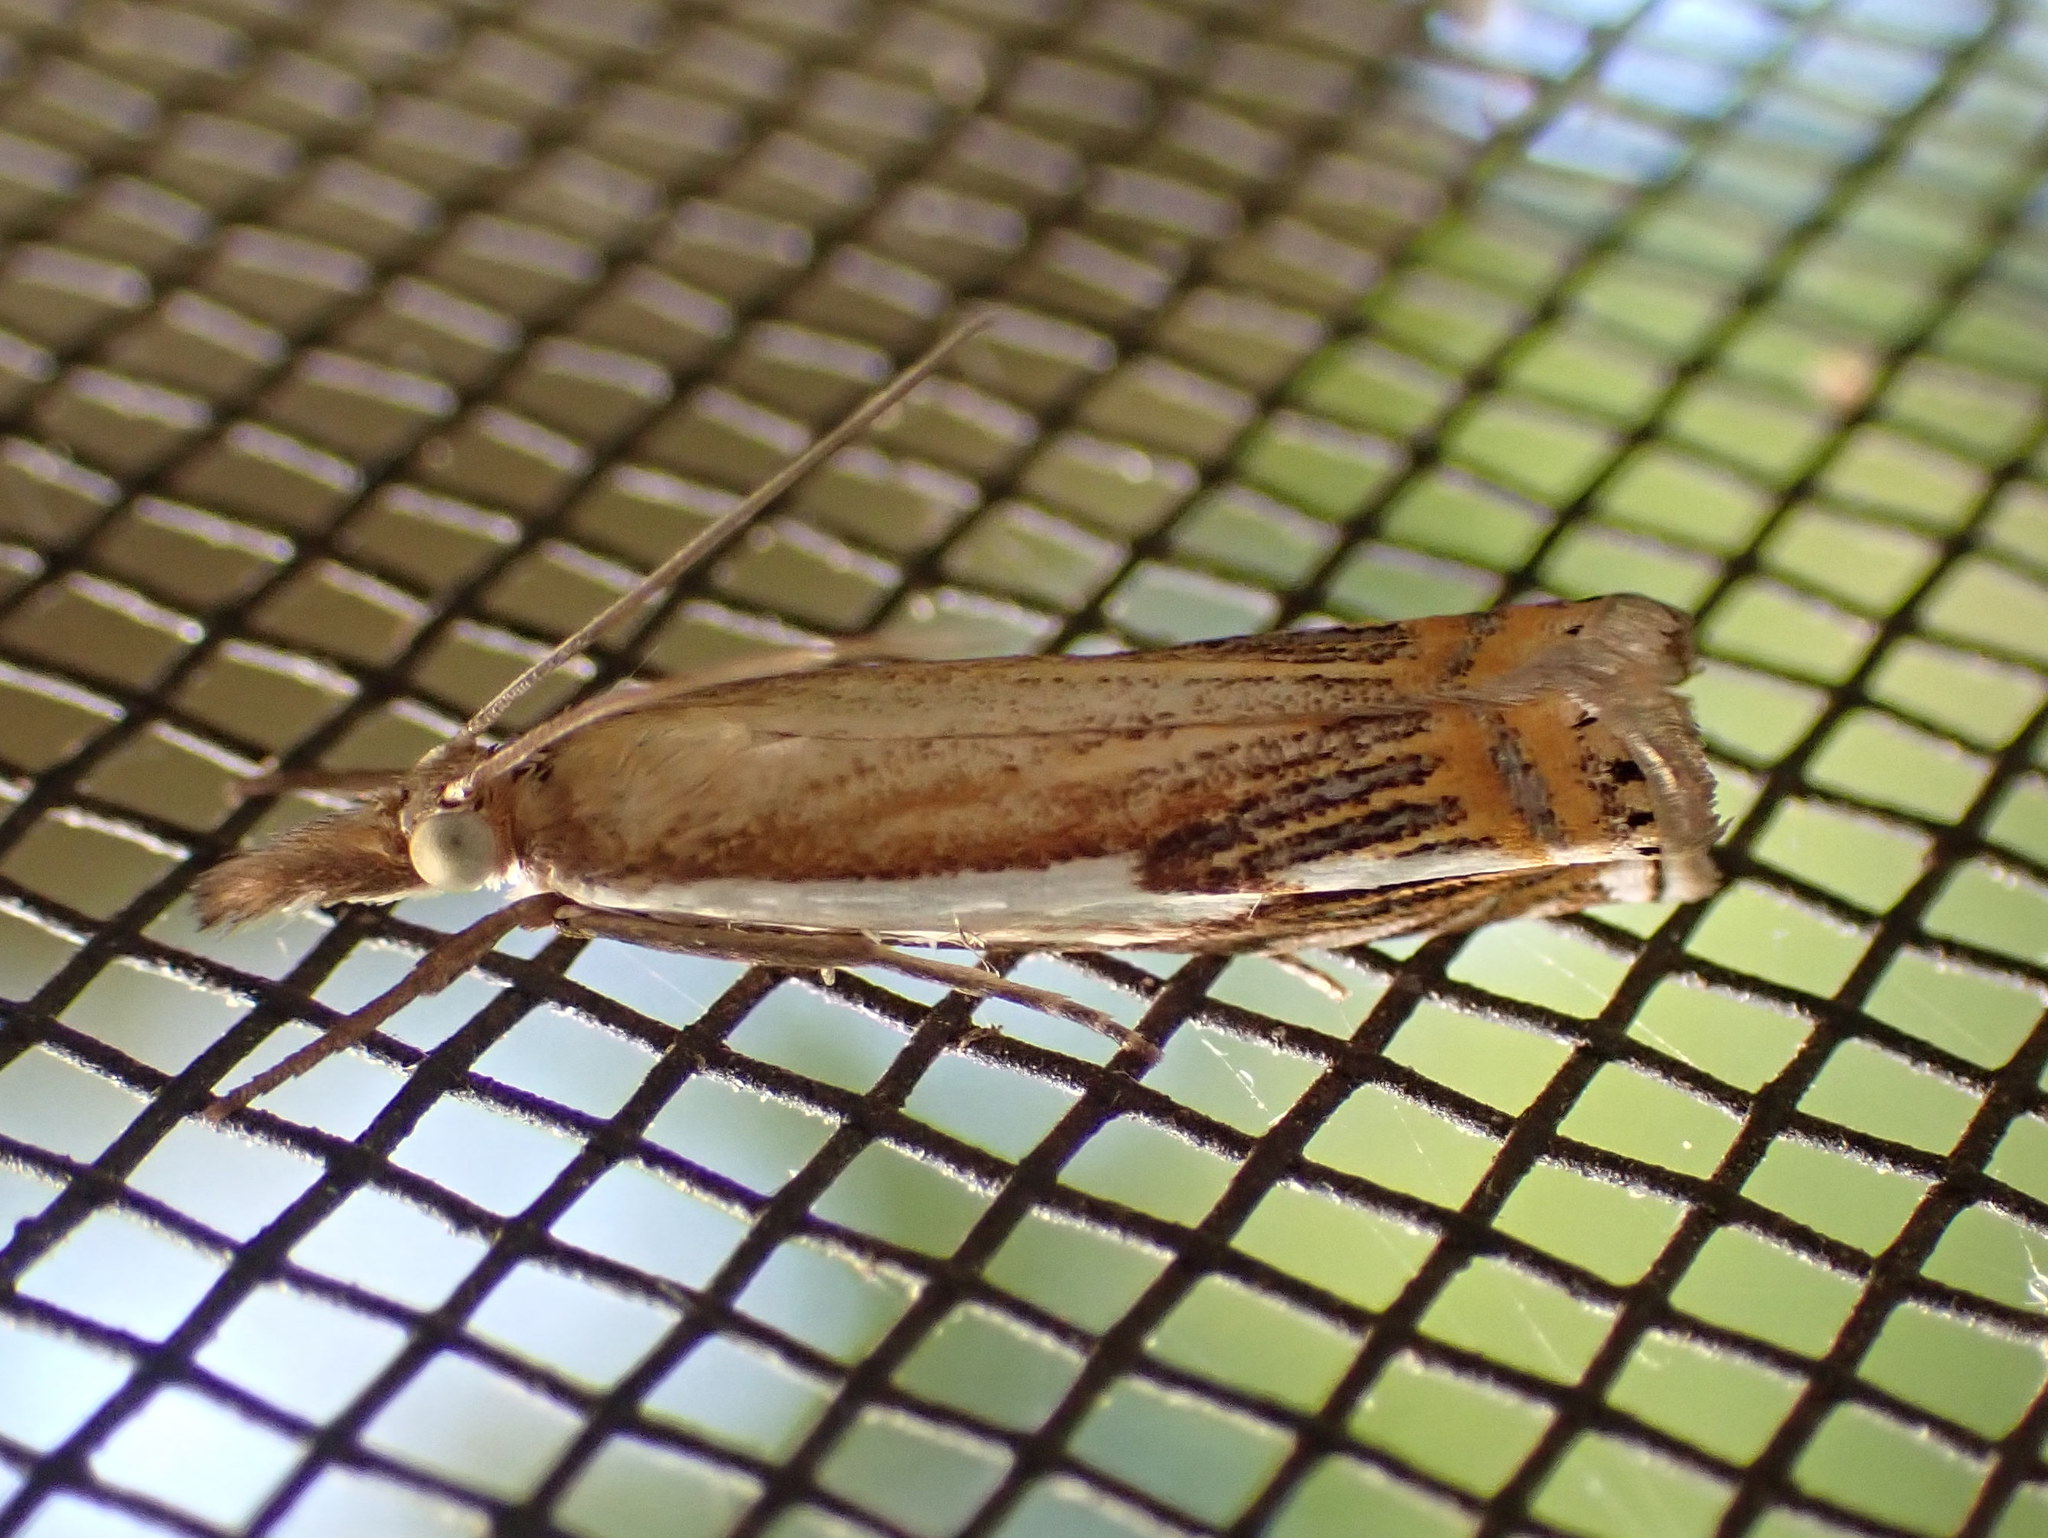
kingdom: Animalia
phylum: Arthropoda
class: Insecta
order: Lepidoptera
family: Crambidae
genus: Crambus
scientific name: Crambus agitatellus
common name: Double-banded grass-veneer
